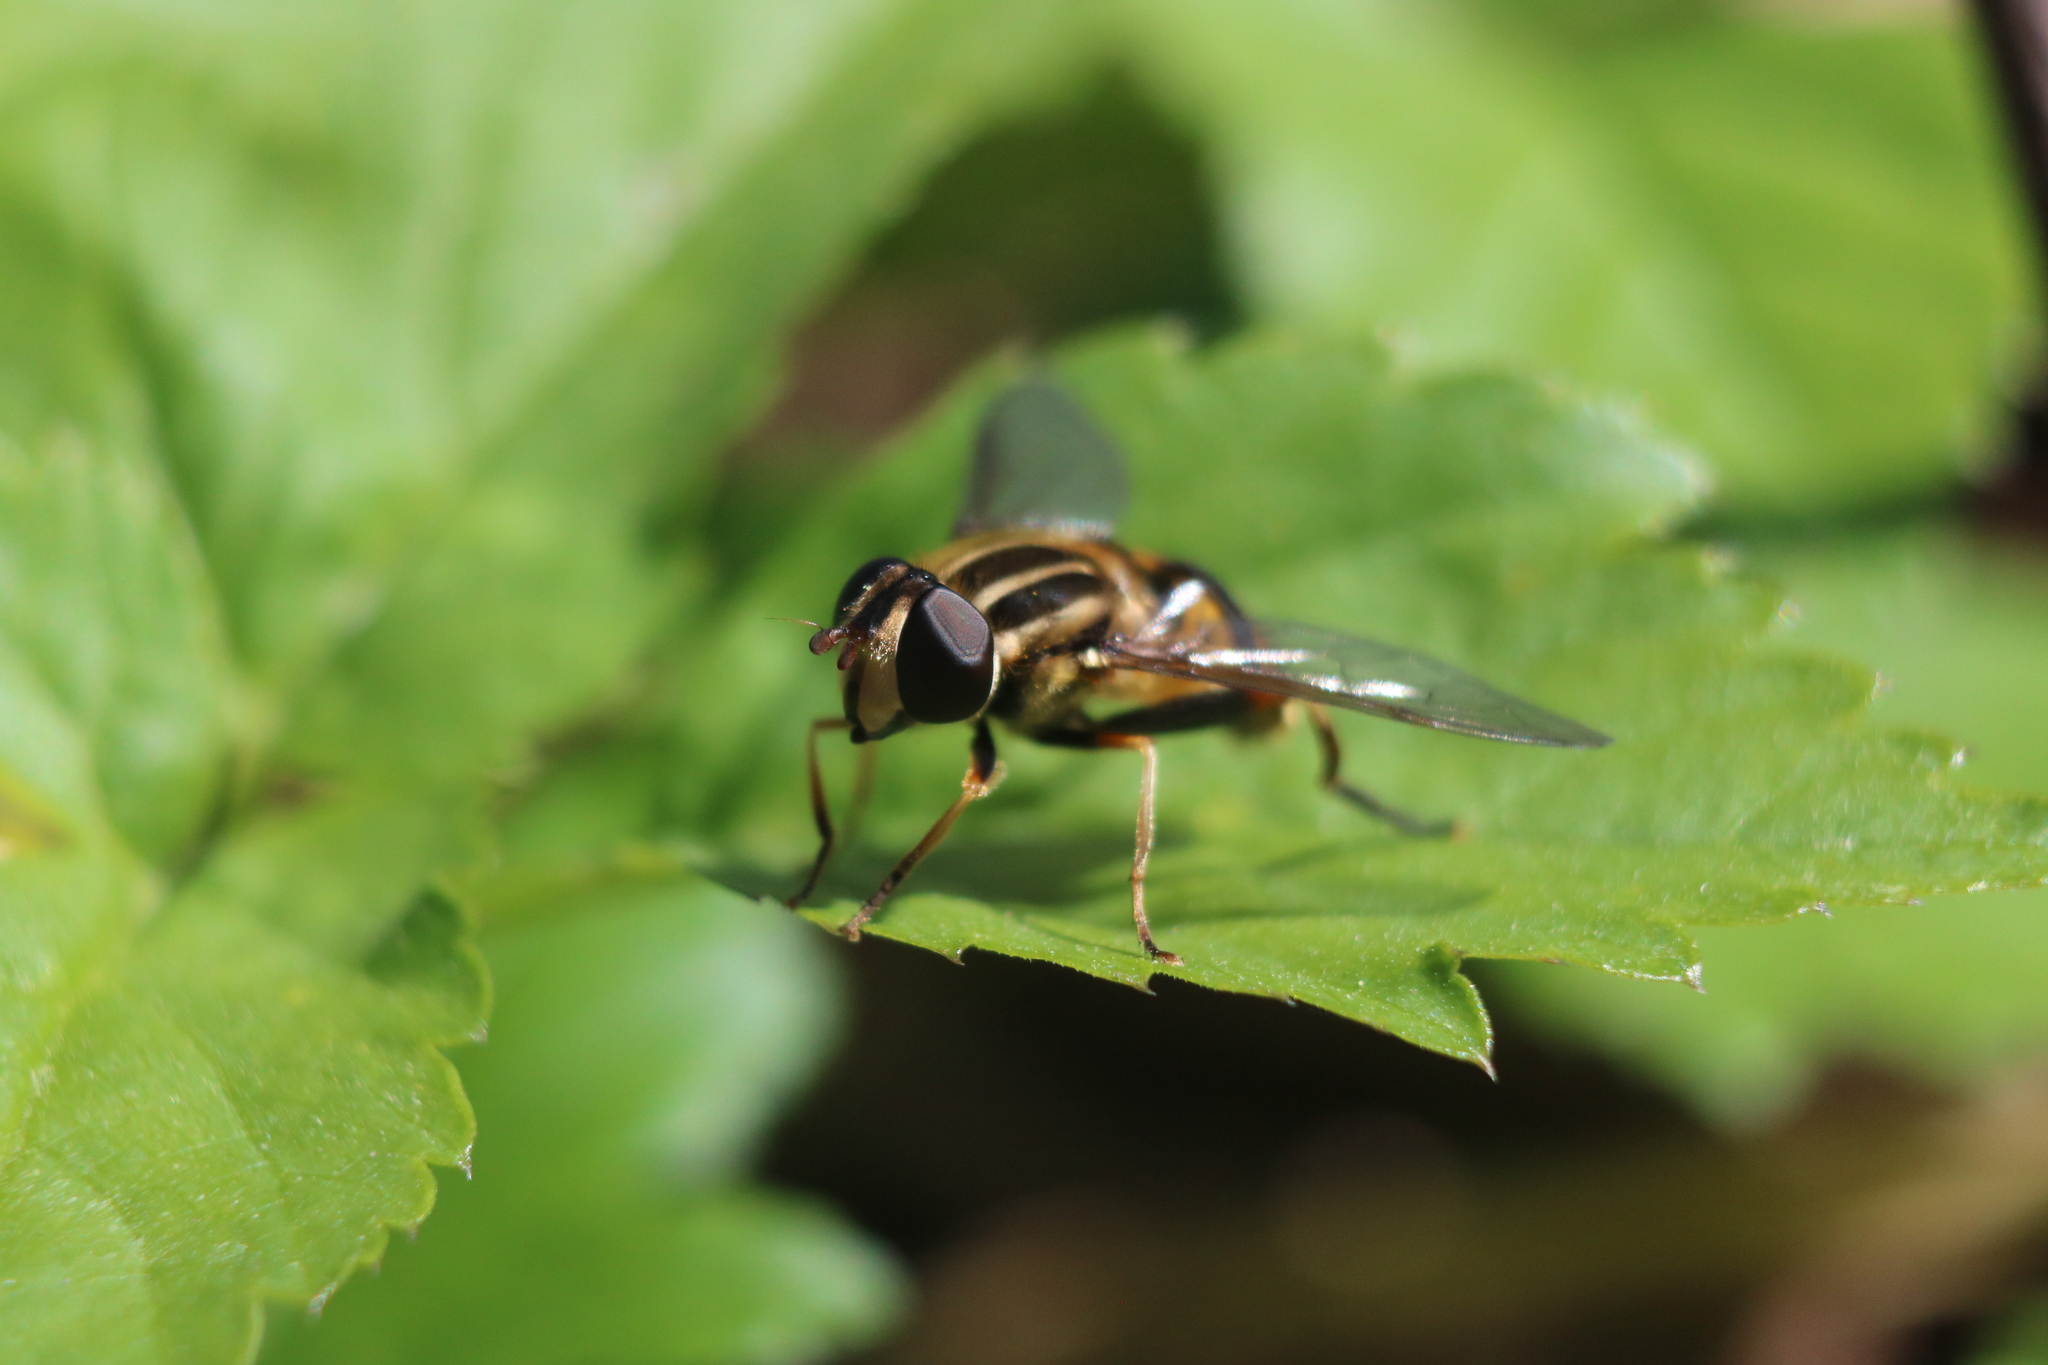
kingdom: Animalia
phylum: Arthropoda
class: Insecta
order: Diptera
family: Syrphidae
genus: Helophilus
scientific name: Helophilus fasciatus
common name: Narrow-headed marsh fly
